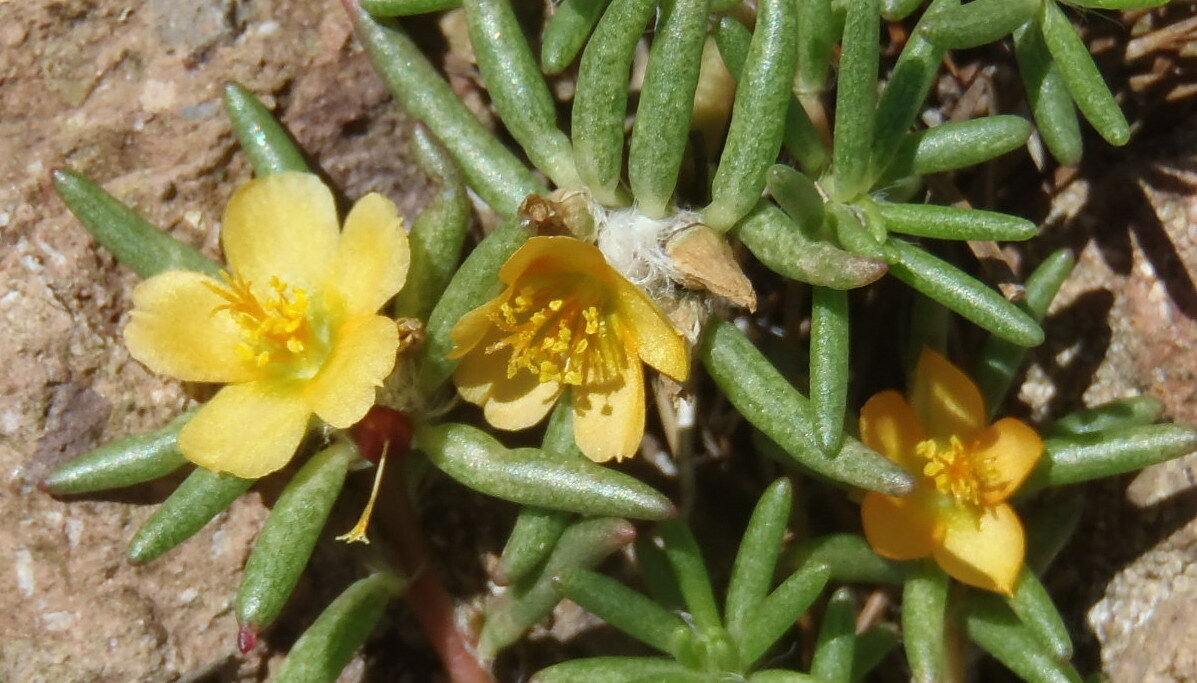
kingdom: Plantae
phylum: Tracheophyta
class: Magnoliopsida
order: Caryophyllales
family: Portulacaceae
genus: Portulaca
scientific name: Portulaca halimoides
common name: Silk cotton purslane
